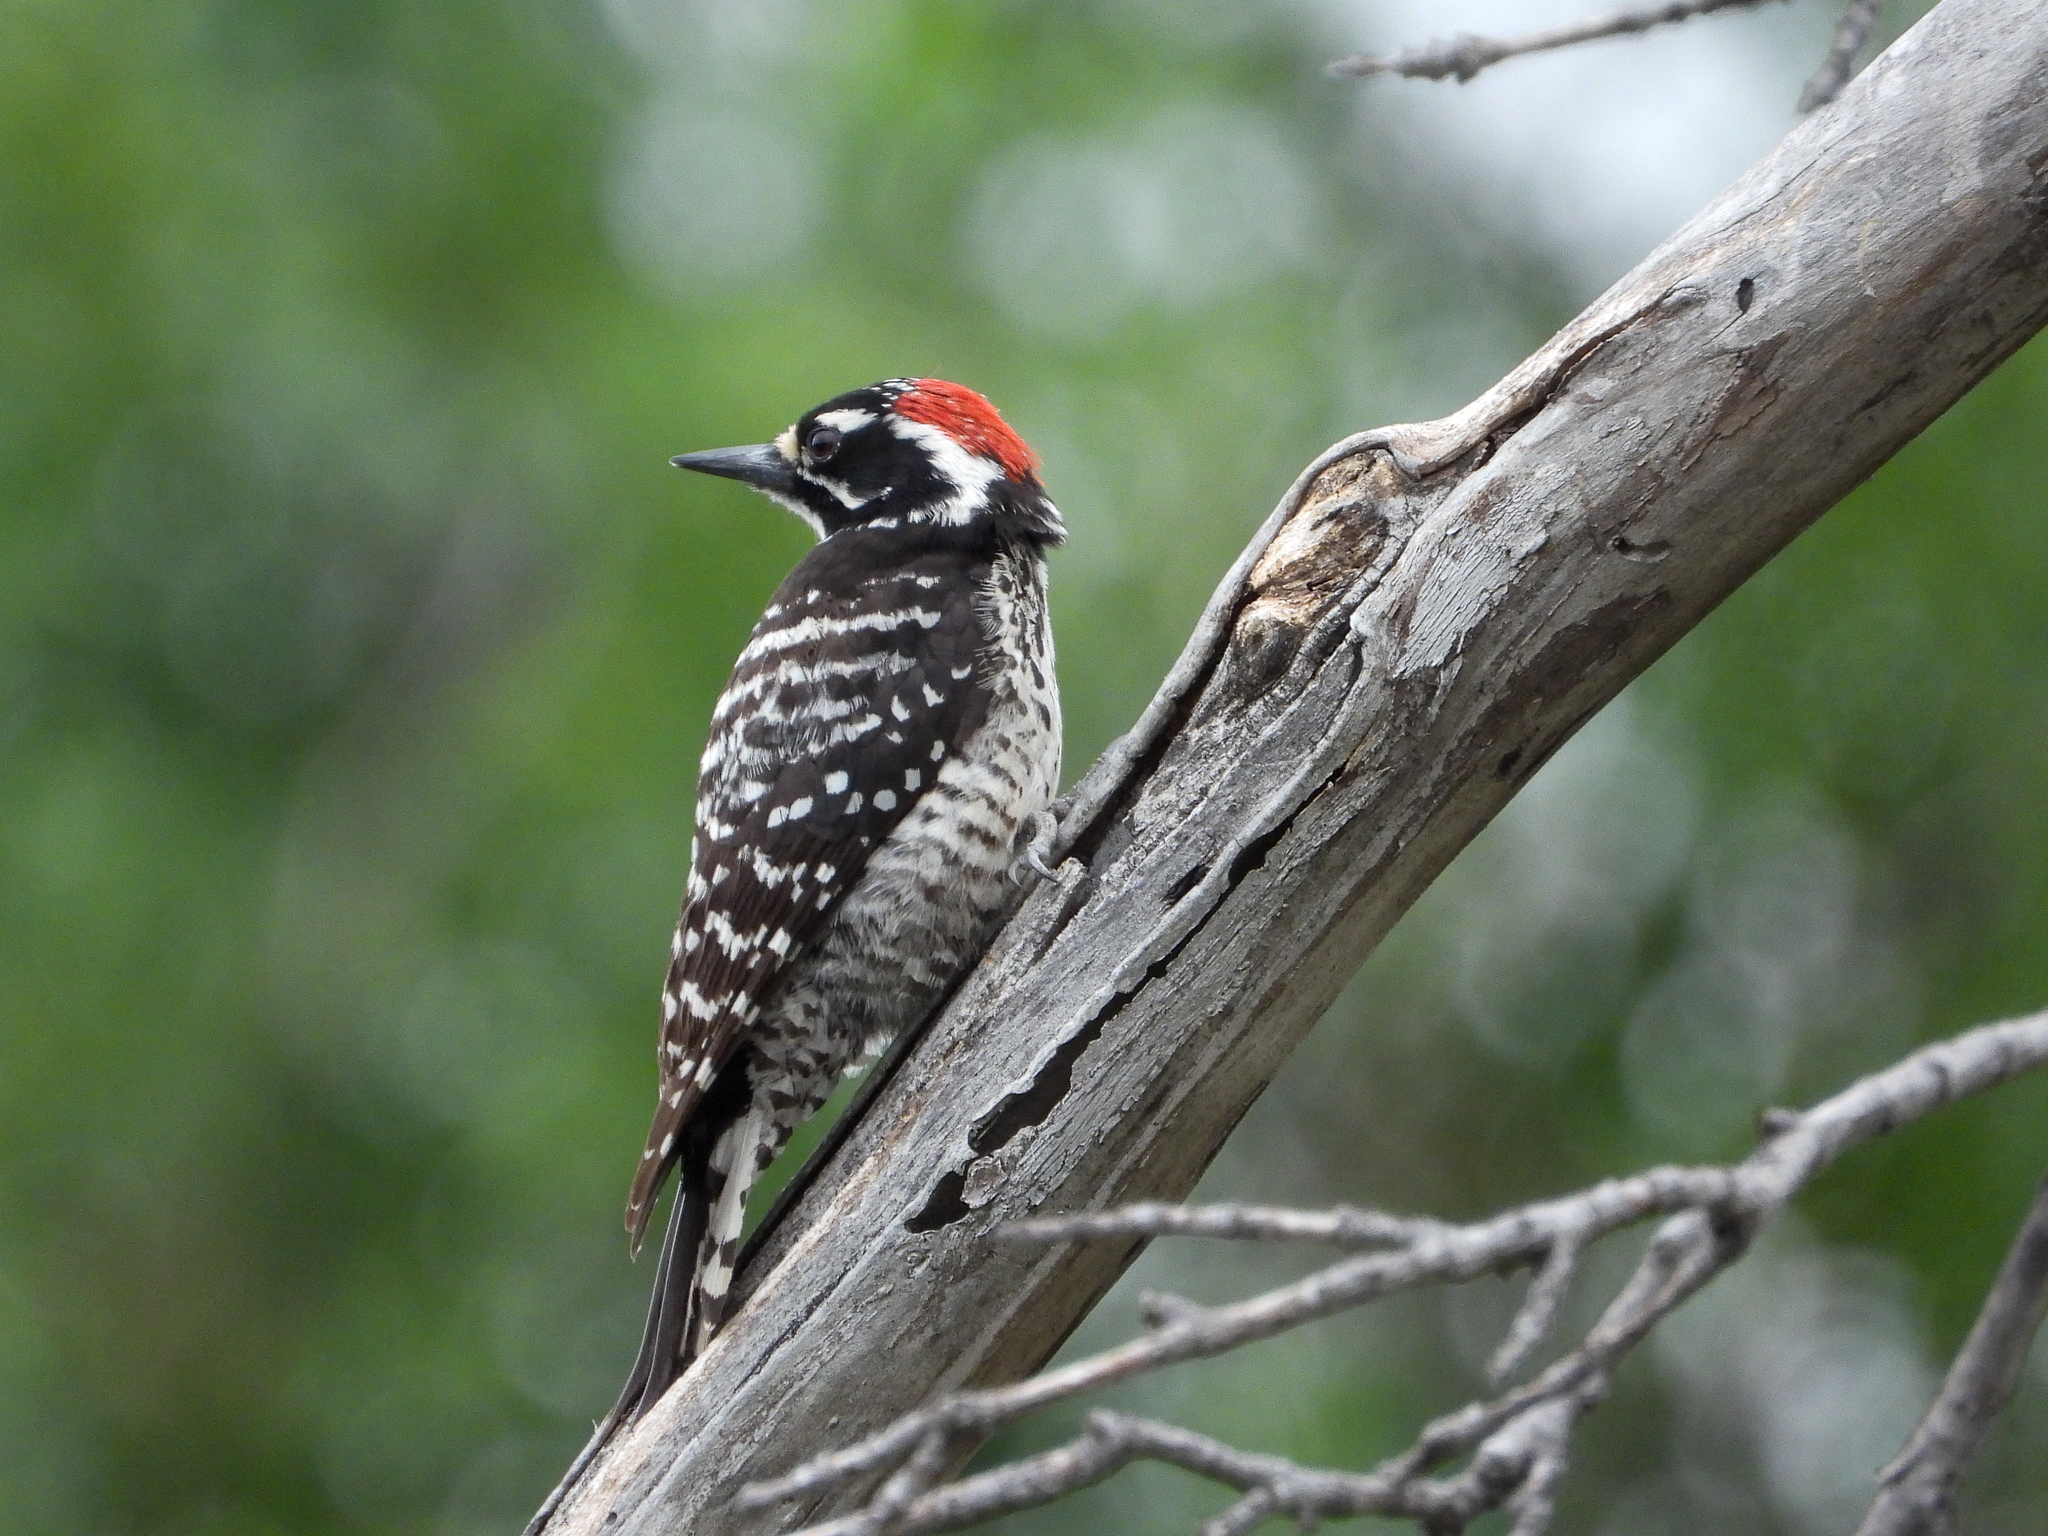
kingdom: Animalia
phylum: Chordata
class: Aves
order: Piciformes
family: Picidae
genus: Dryobates
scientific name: Dryobates nuttallii
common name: Nuttall's woodpecker
